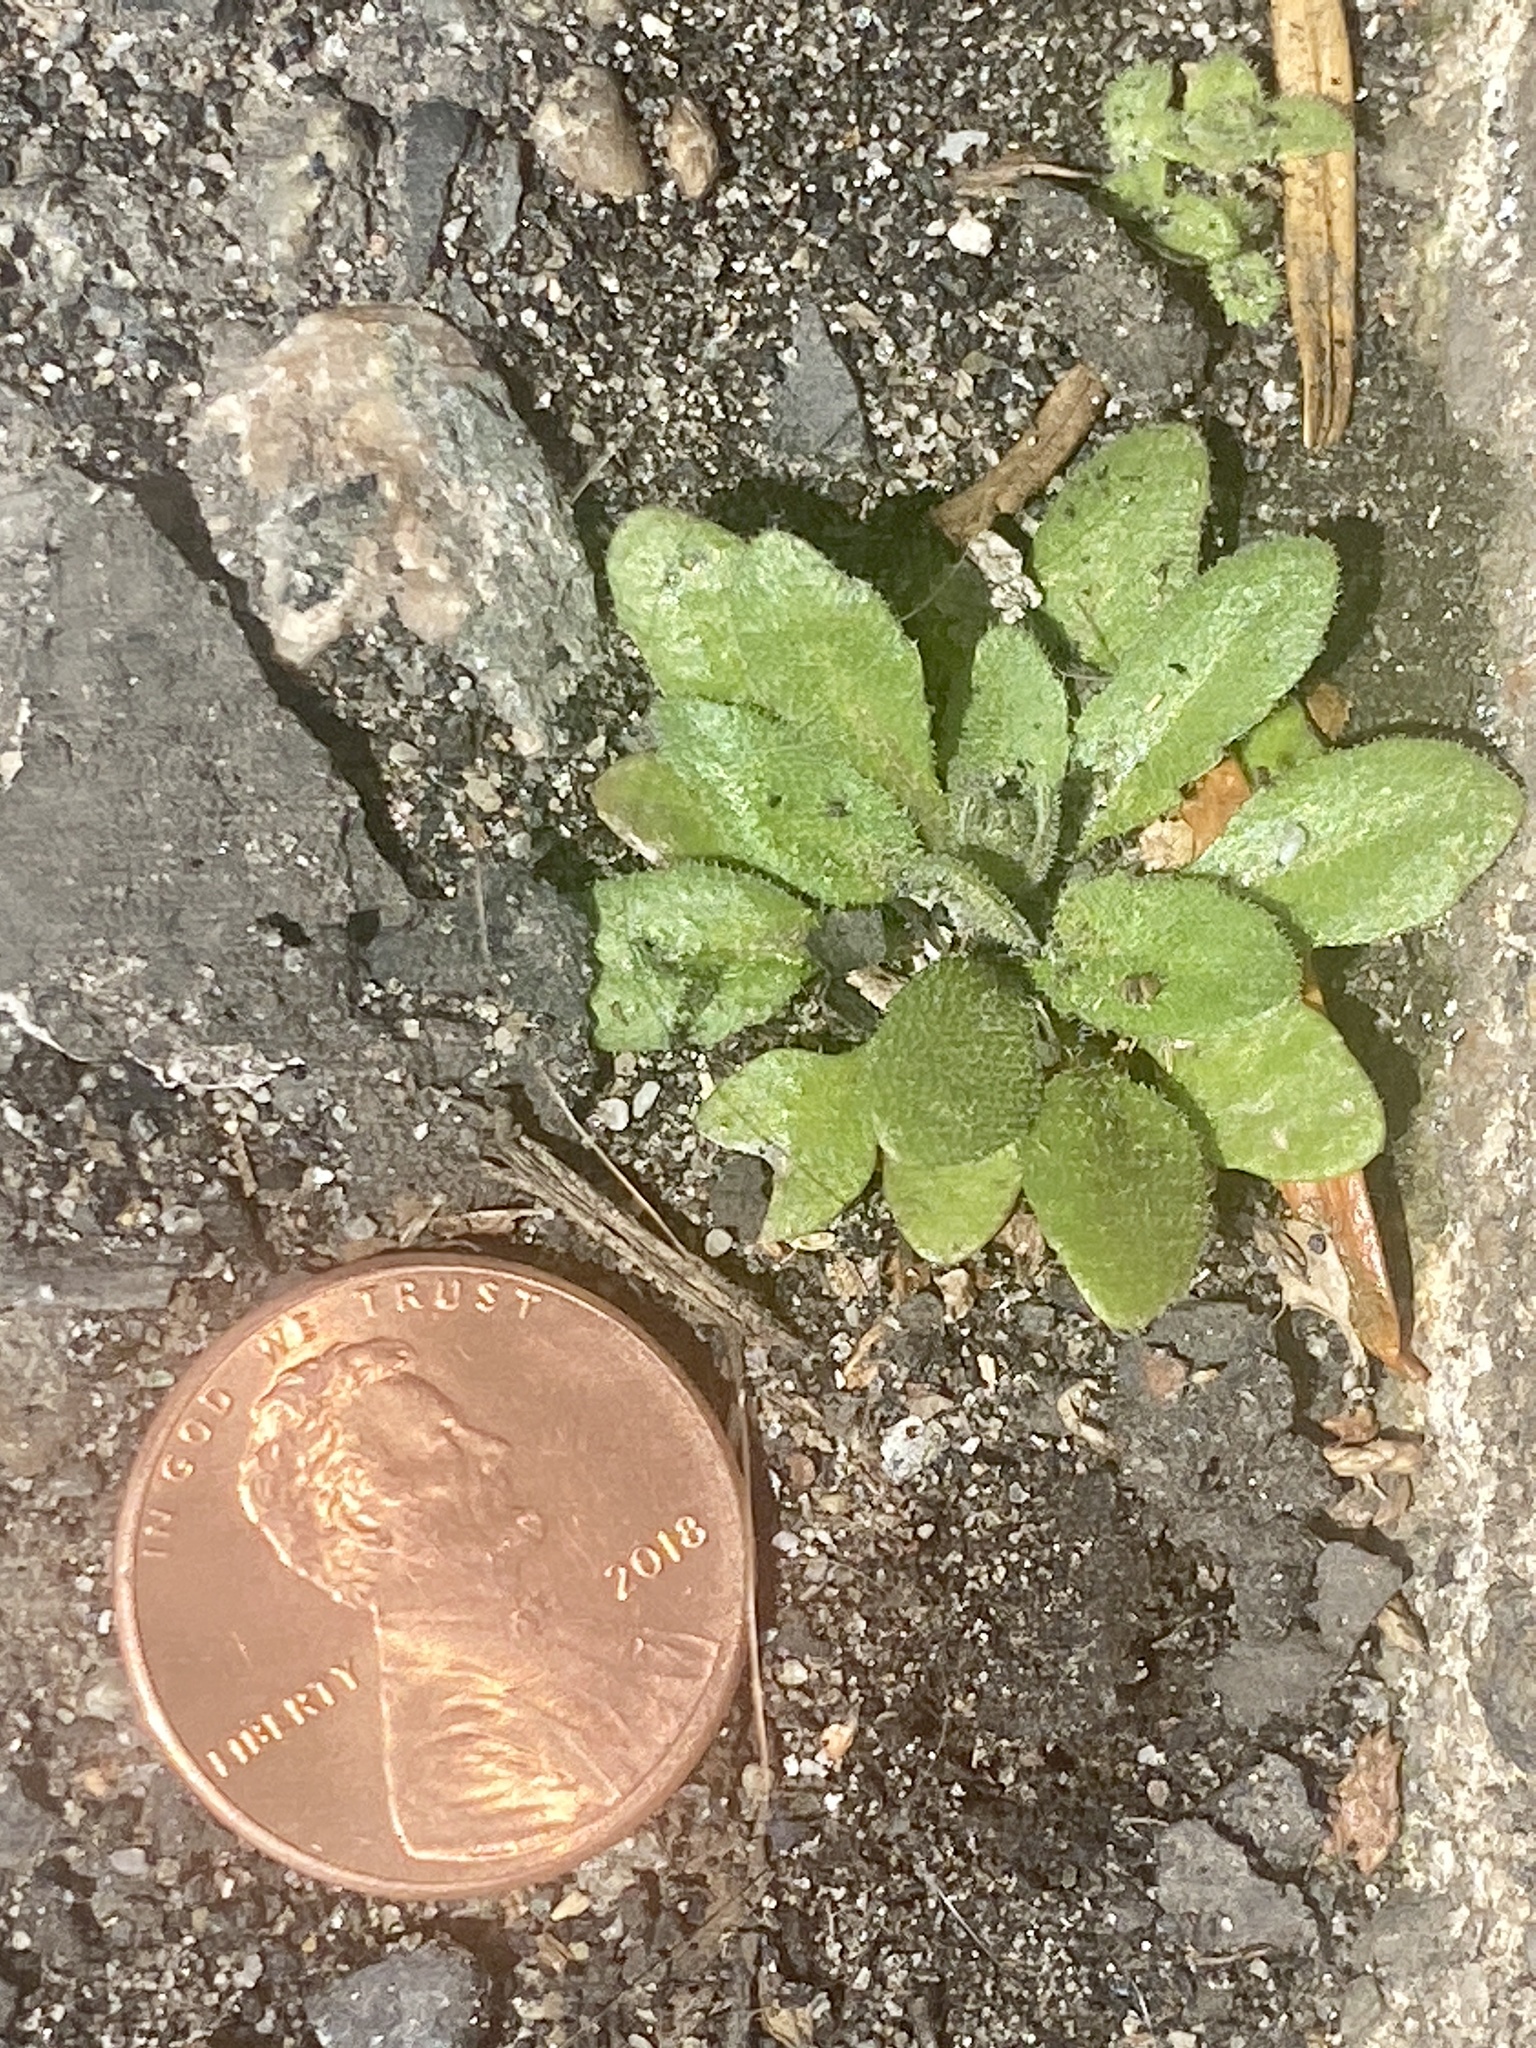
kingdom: Plantae
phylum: Tracheophyta
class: Magnoliopsida
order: Brassicales
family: Brassicaceae
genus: Draba
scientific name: Draba verna
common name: Spring draba
